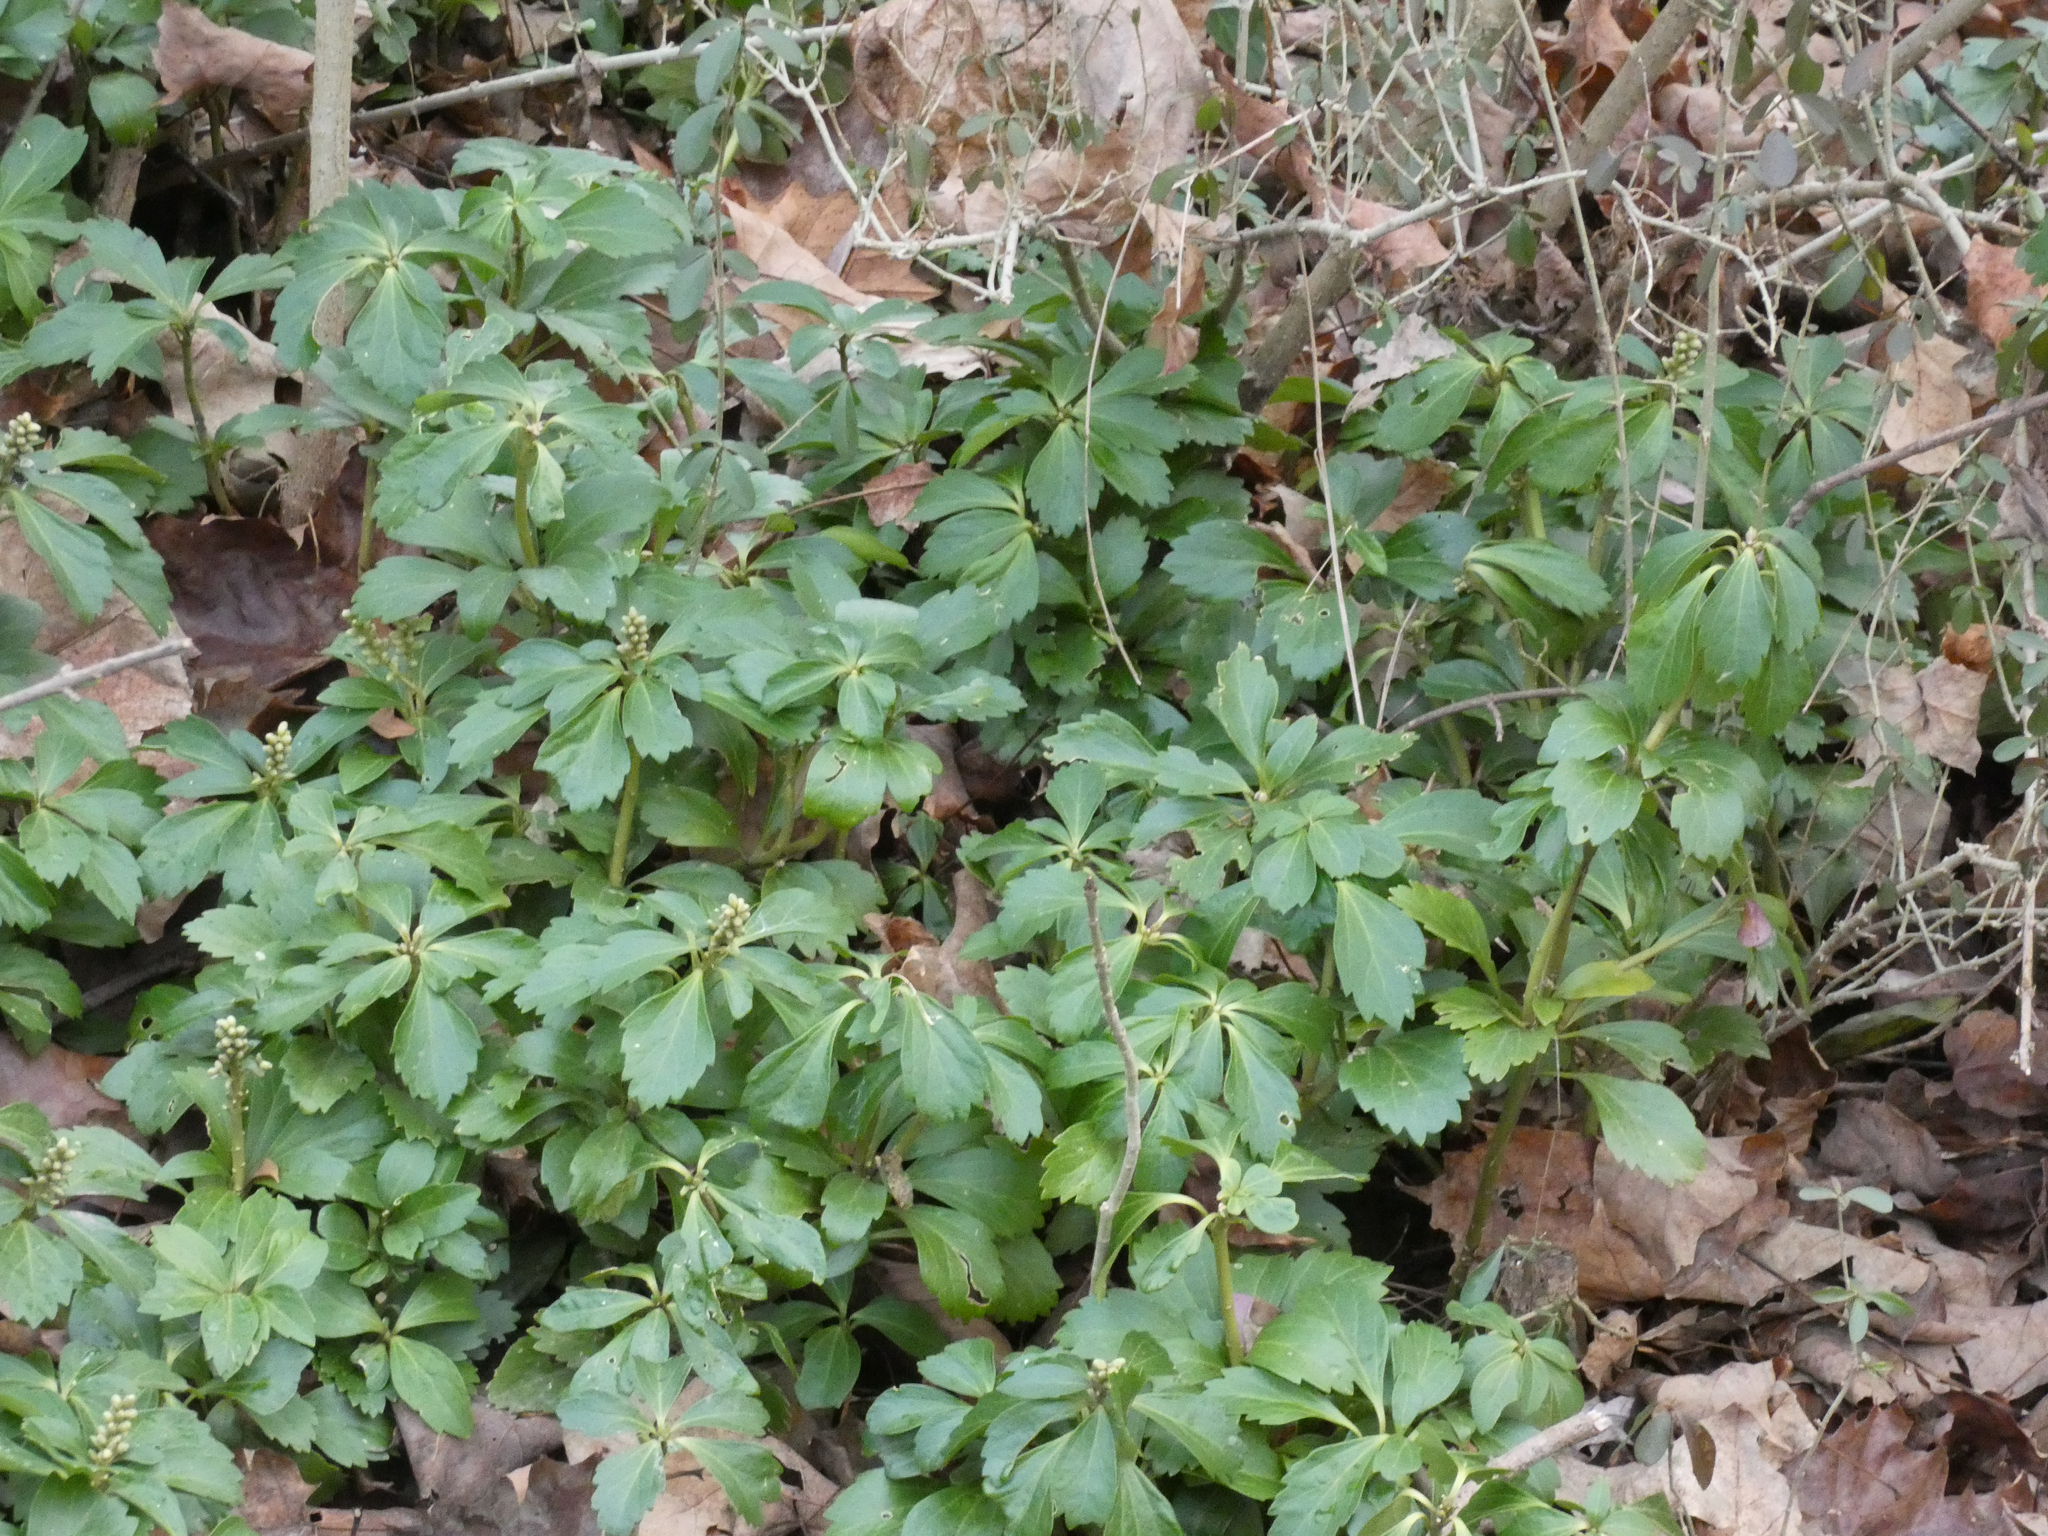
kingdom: Plantae
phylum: Tracheophyta
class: Magnoliopsida
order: Buxales
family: Buxaceae
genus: Pachysandra
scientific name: Pachysandra terminalis
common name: Japanese pachysandra
